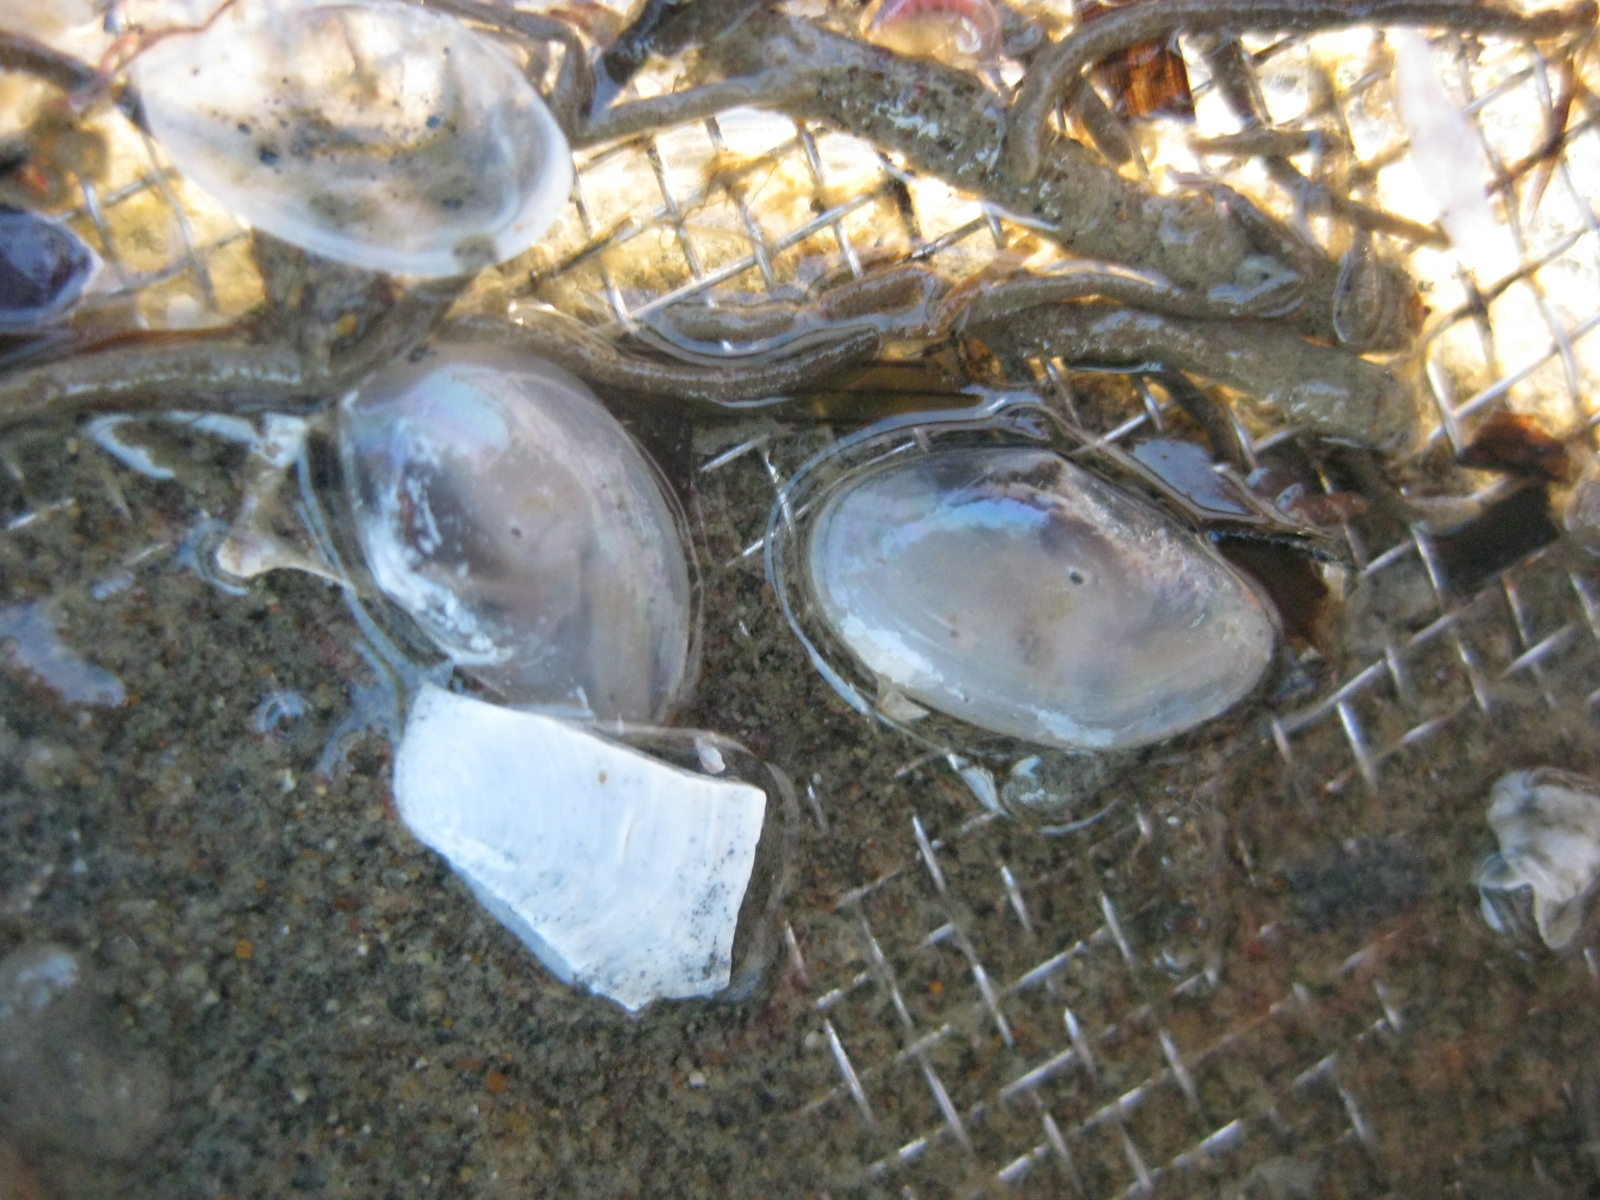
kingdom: Animalia
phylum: Mollusca
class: Bivalvia
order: Cardiida
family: Semelidae
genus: Theora
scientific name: Theora lubrica
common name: Asian semele
